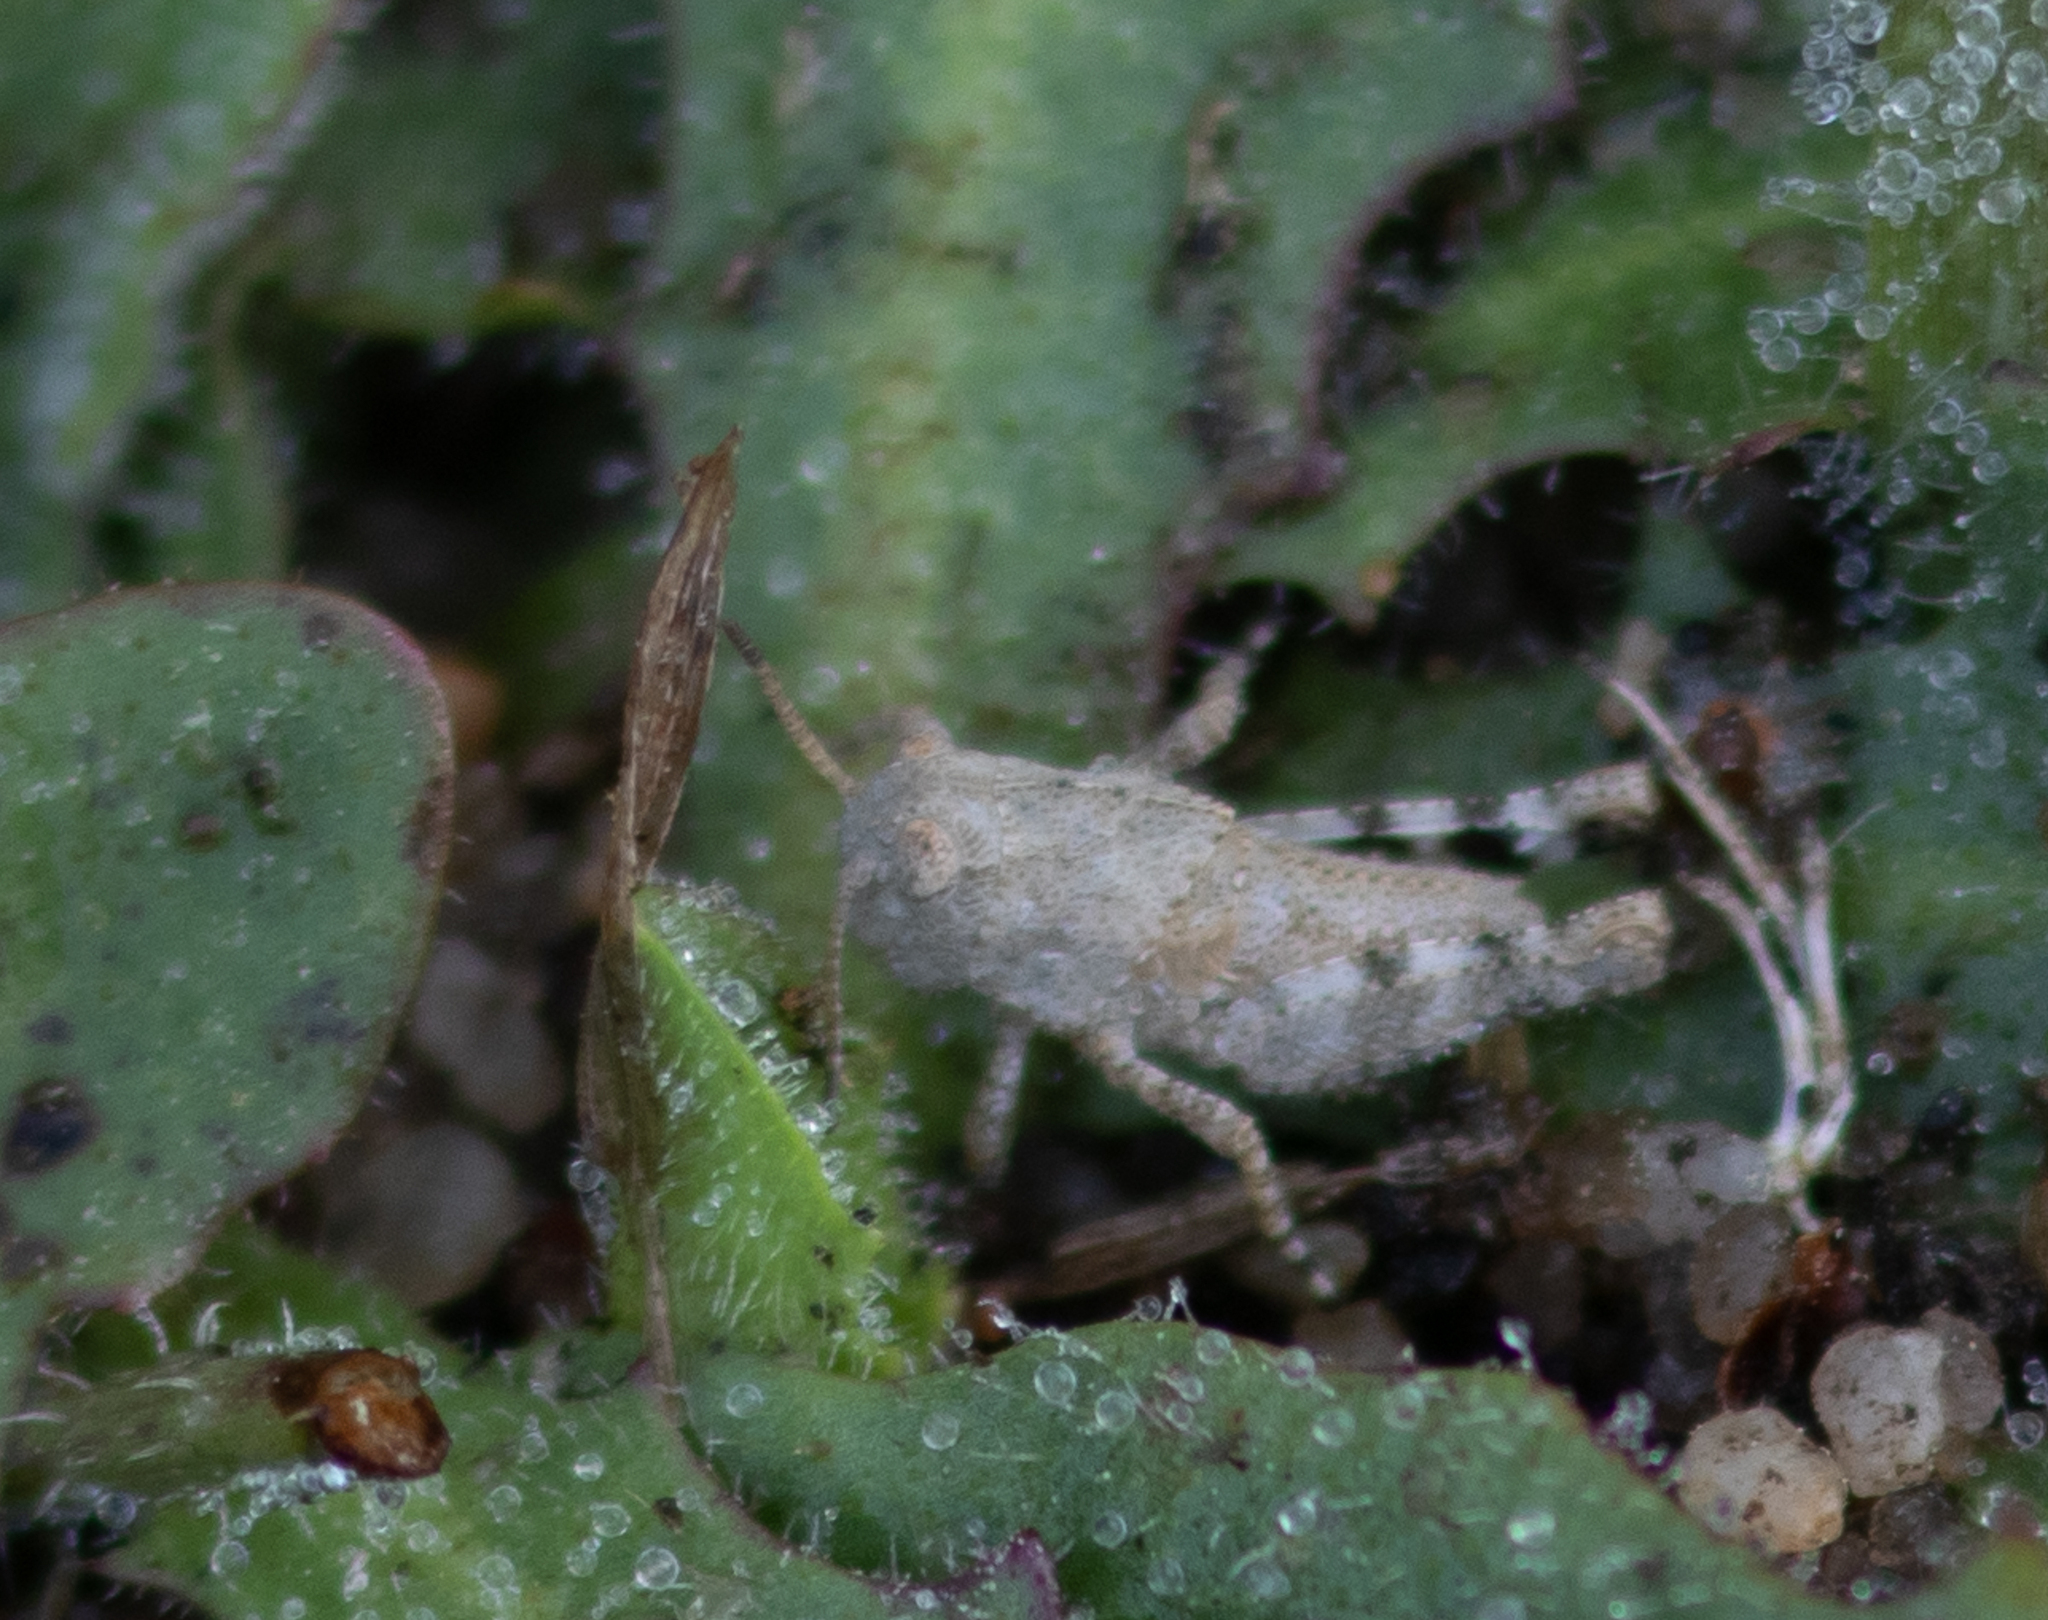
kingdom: Animalia
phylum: Arthropoda
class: Insecta
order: Orthoptera
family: Acrididae
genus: Dissosteira
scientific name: Dissosteira carolina
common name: Carolina grasshopper
